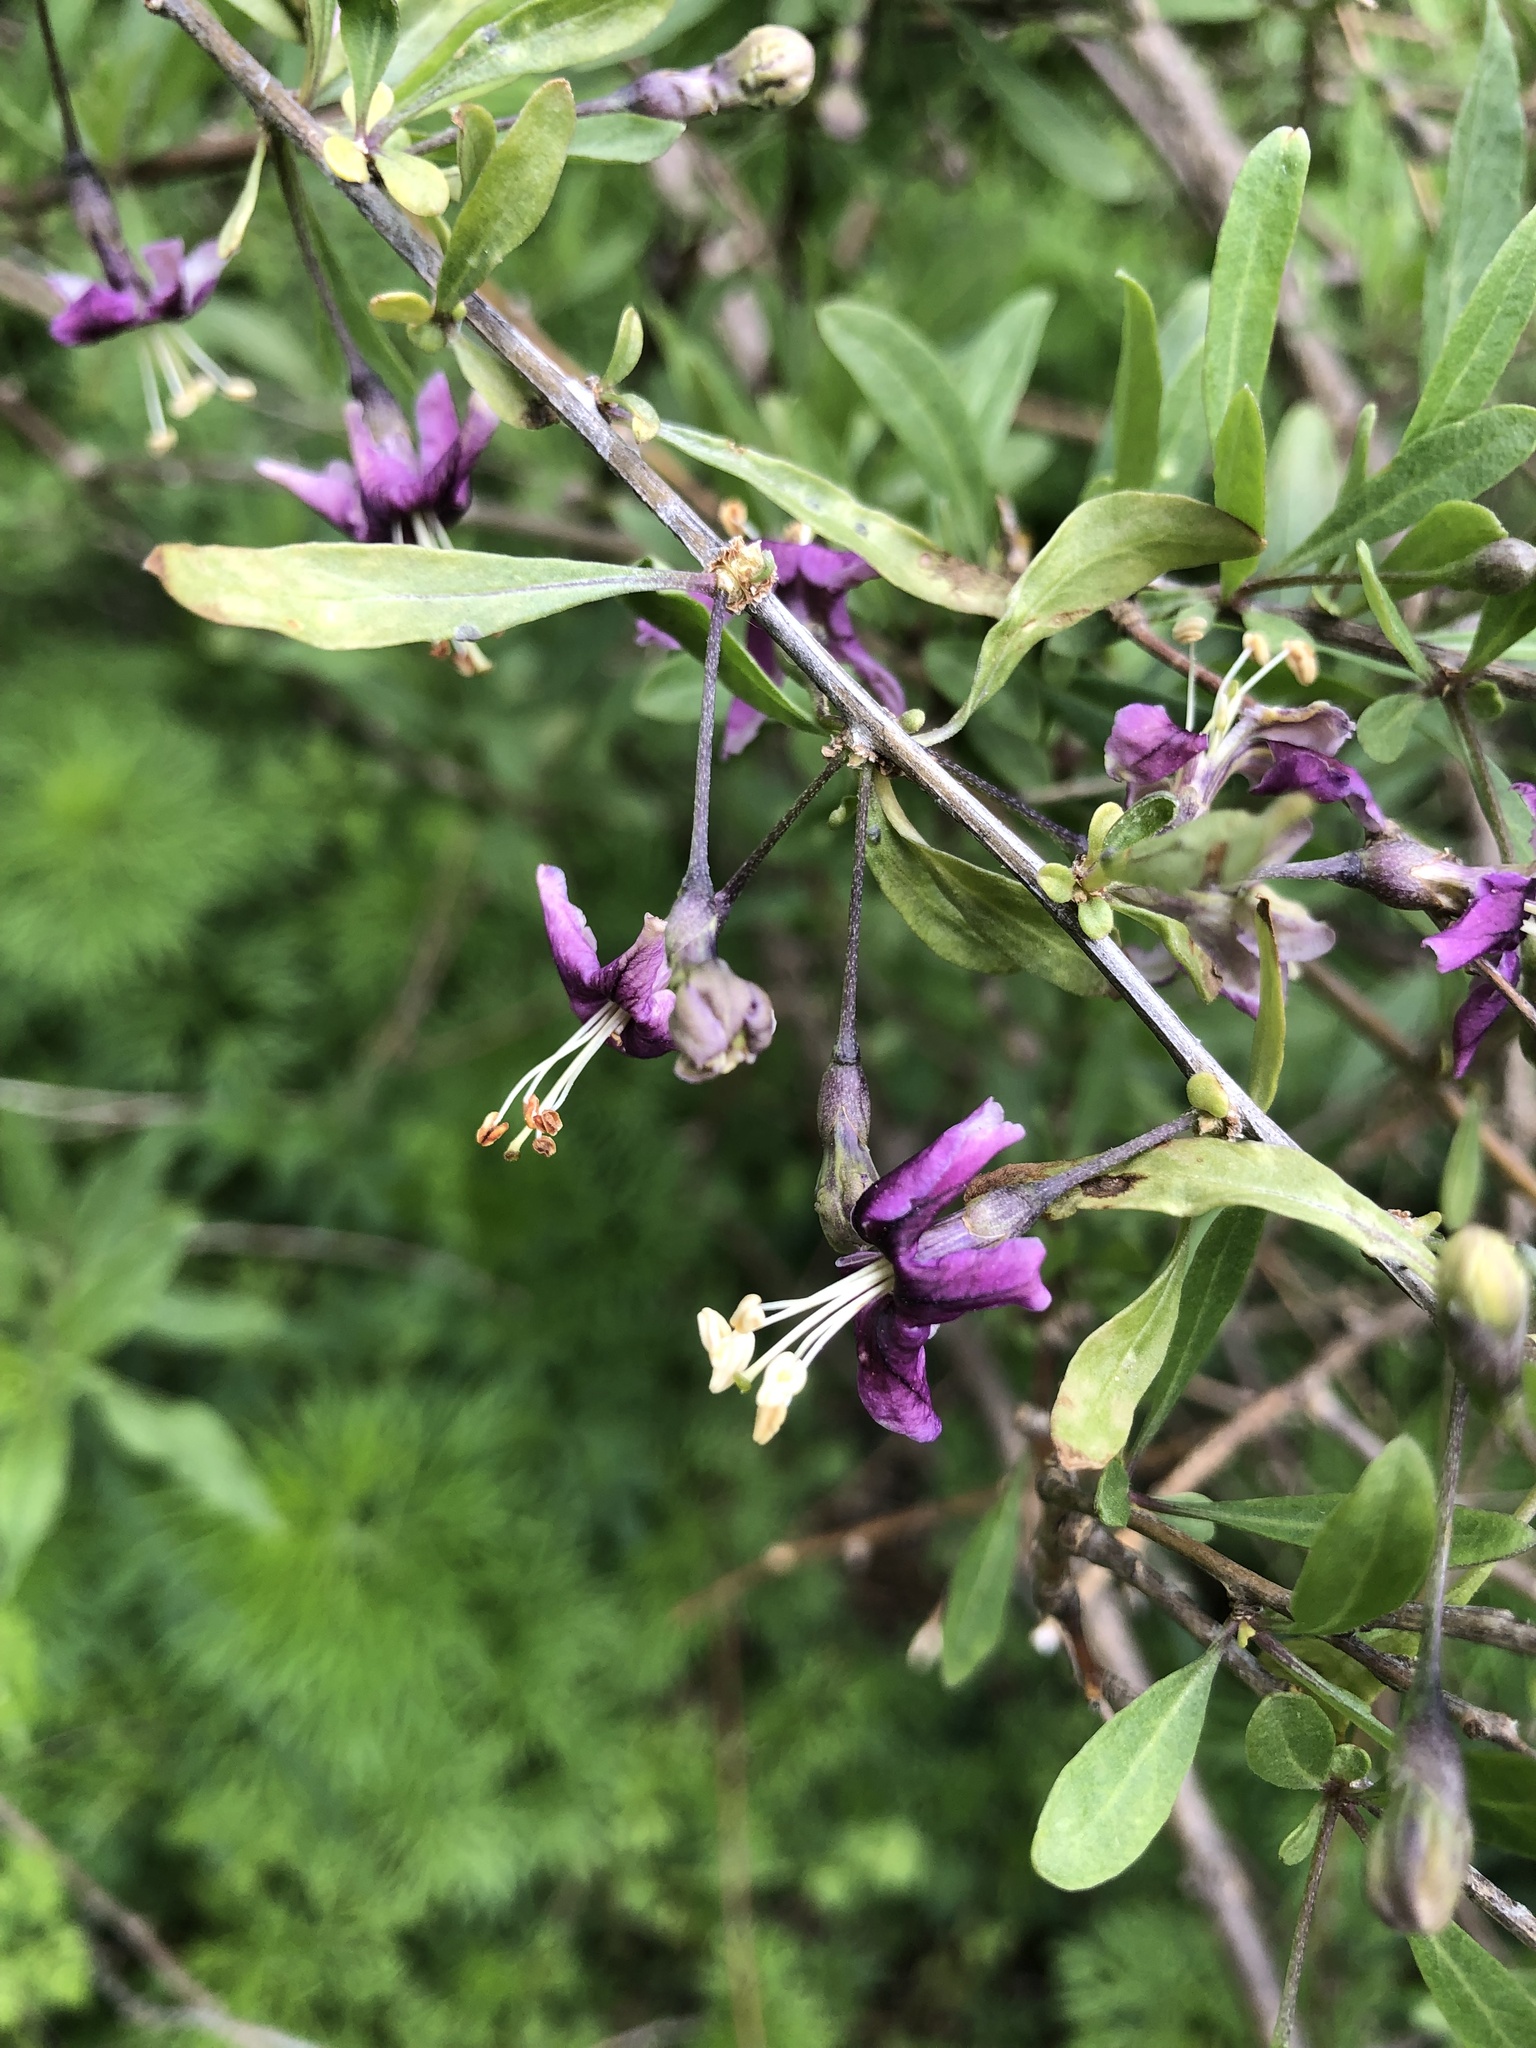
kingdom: Plantae
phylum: Tracheophyta
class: Magnoliopsida
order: Solanales
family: Solanaceae
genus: Lycium
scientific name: Lycium barbarum
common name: Duke of argyll's teaplant
